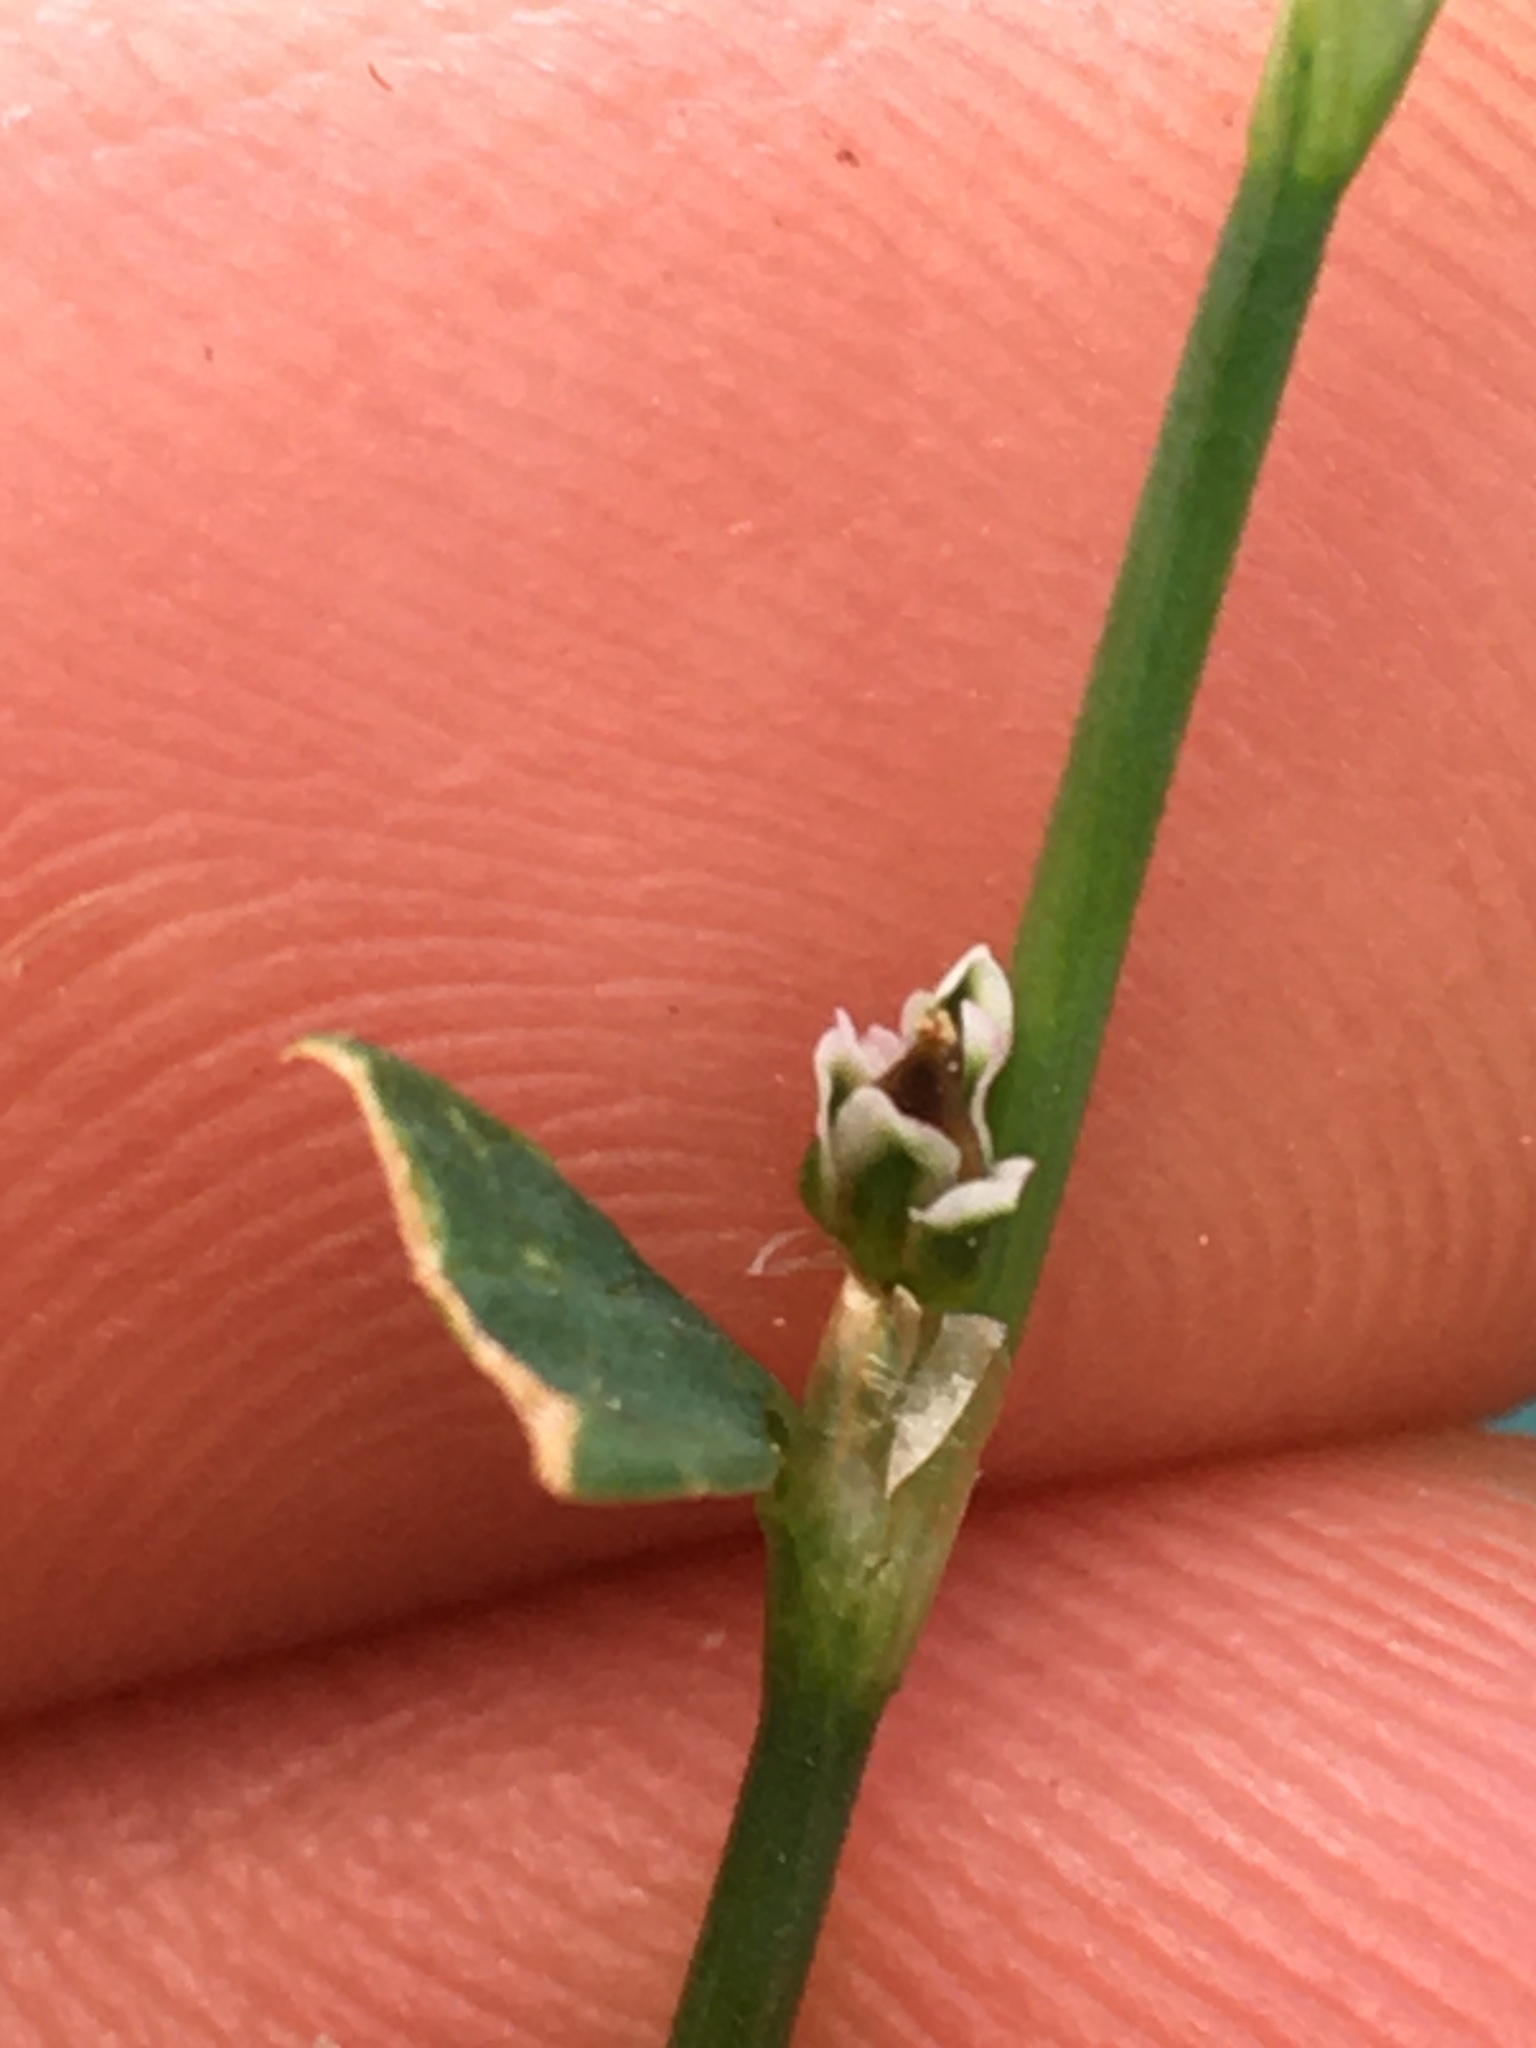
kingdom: Plantae
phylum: Tracheophyta
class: Magnoliopsida
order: Caryophyllales
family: Polygonaceae
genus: Polygonum
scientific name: Polygonum aviculare
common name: Prostrate knotweed
